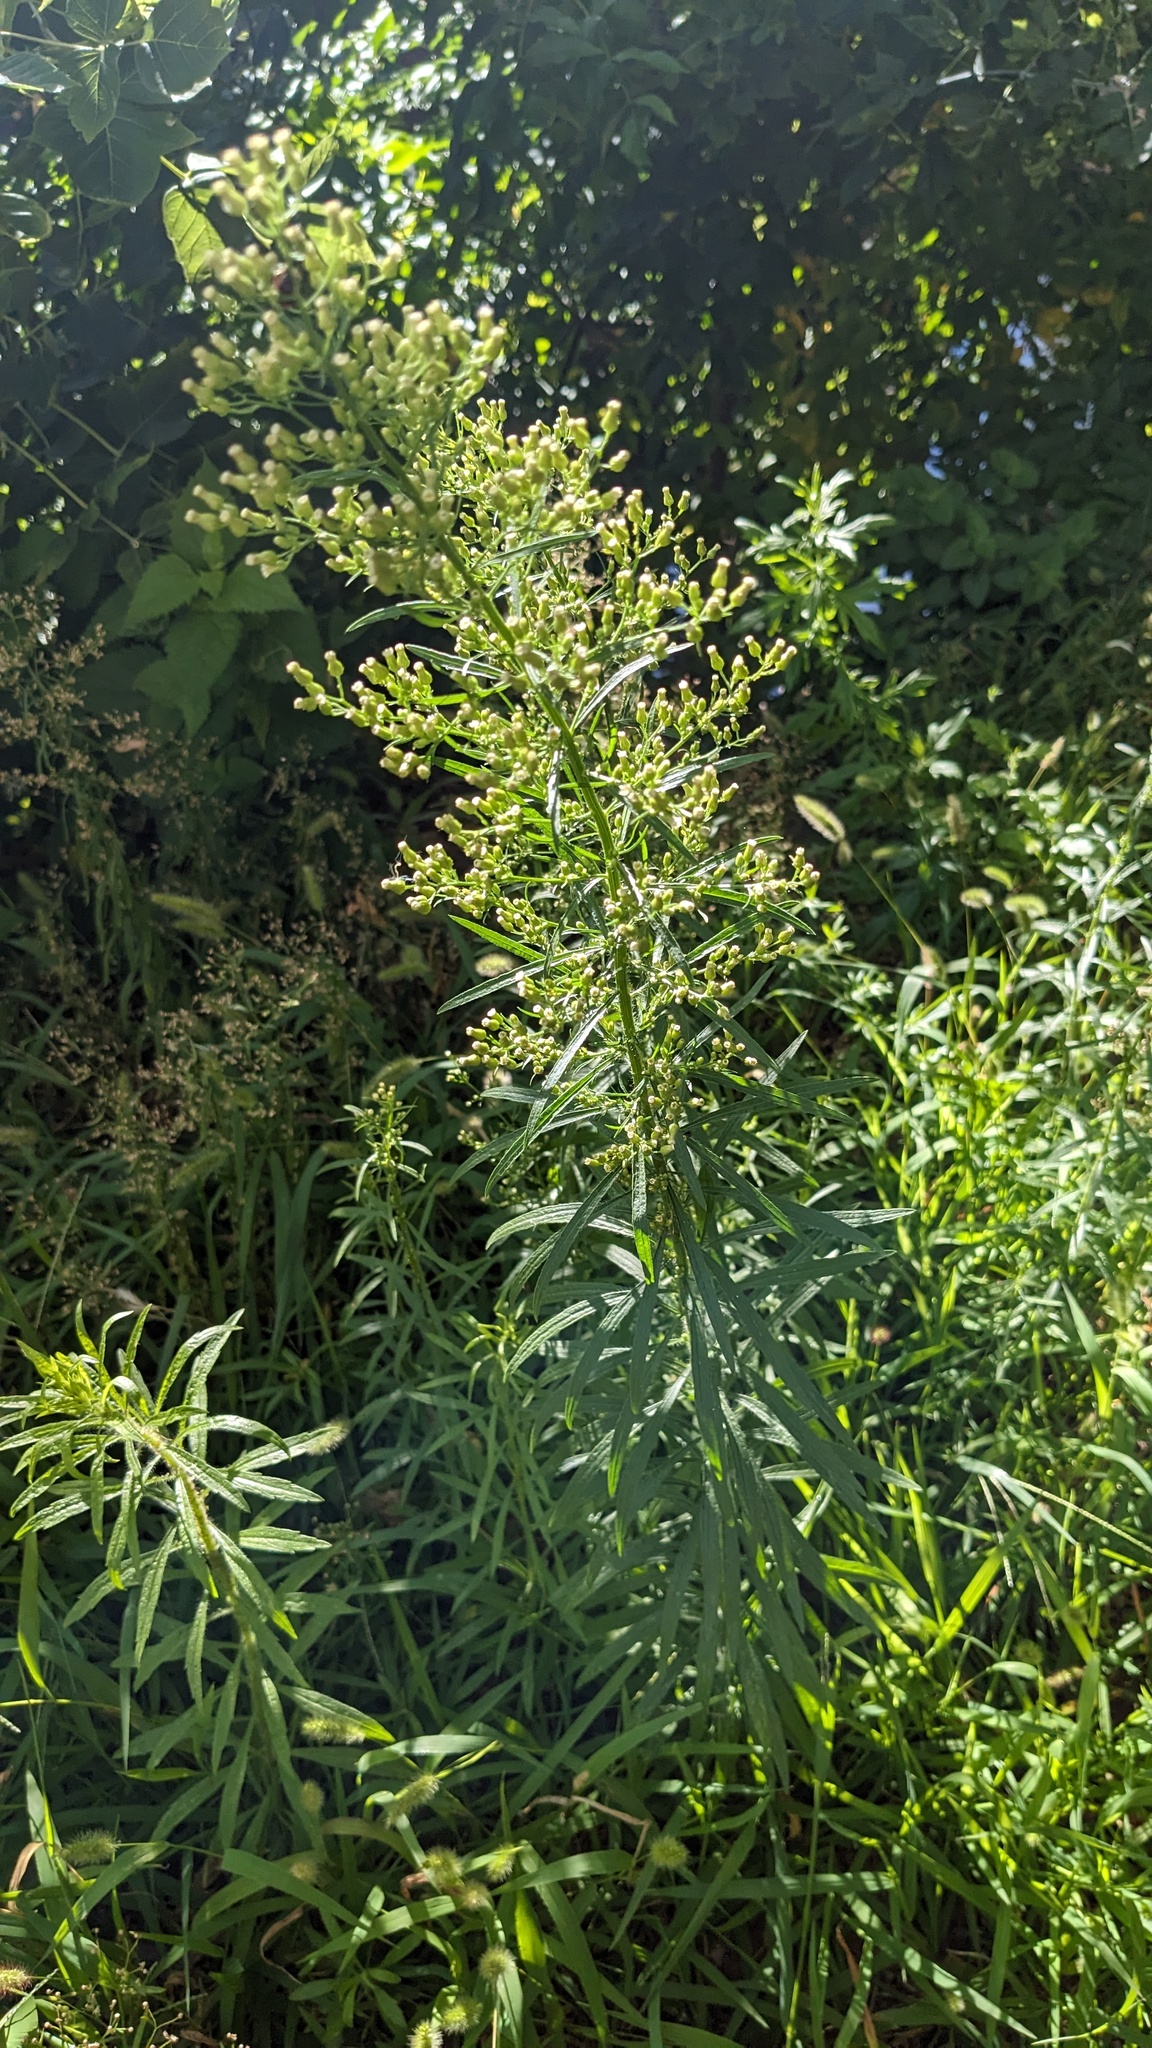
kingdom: Plantae
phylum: Tracheophyta
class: Magnoliopsida
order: Asterales
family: Asteraceae
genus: Erigeron
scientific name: Erigeron canadensis
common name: Canadian fleabane
